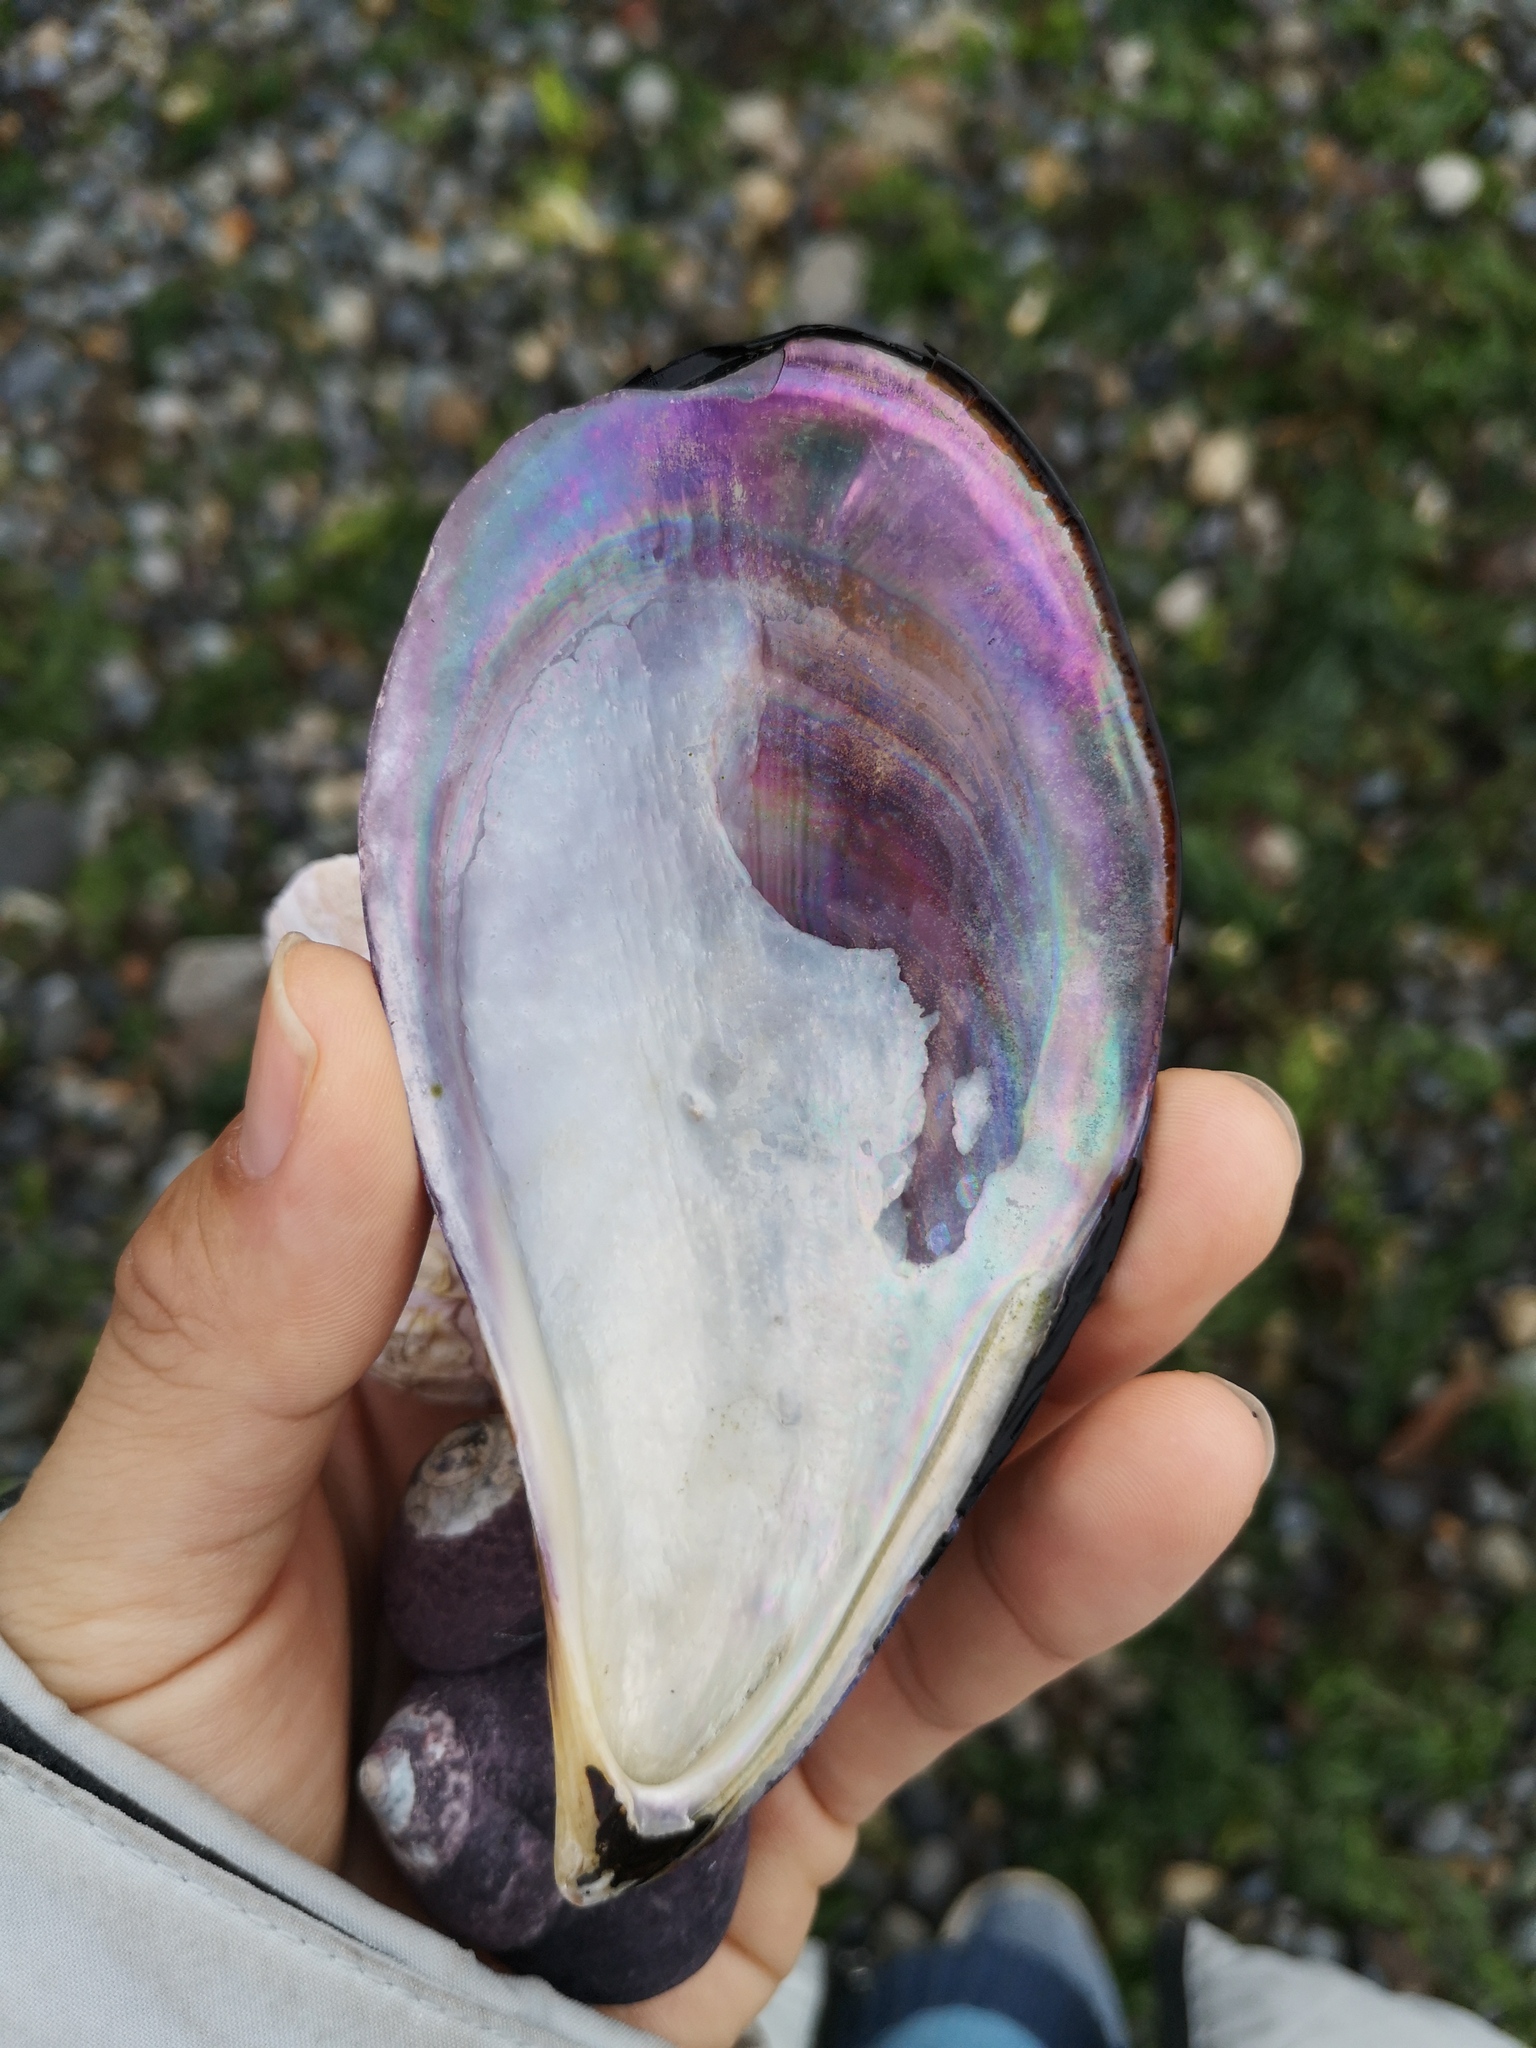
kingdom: Animalia
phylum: Mollusca
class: Bivalvia
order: Mytilida
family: Mytilidae
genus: Aulacomya
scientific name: Aulacomya atra
